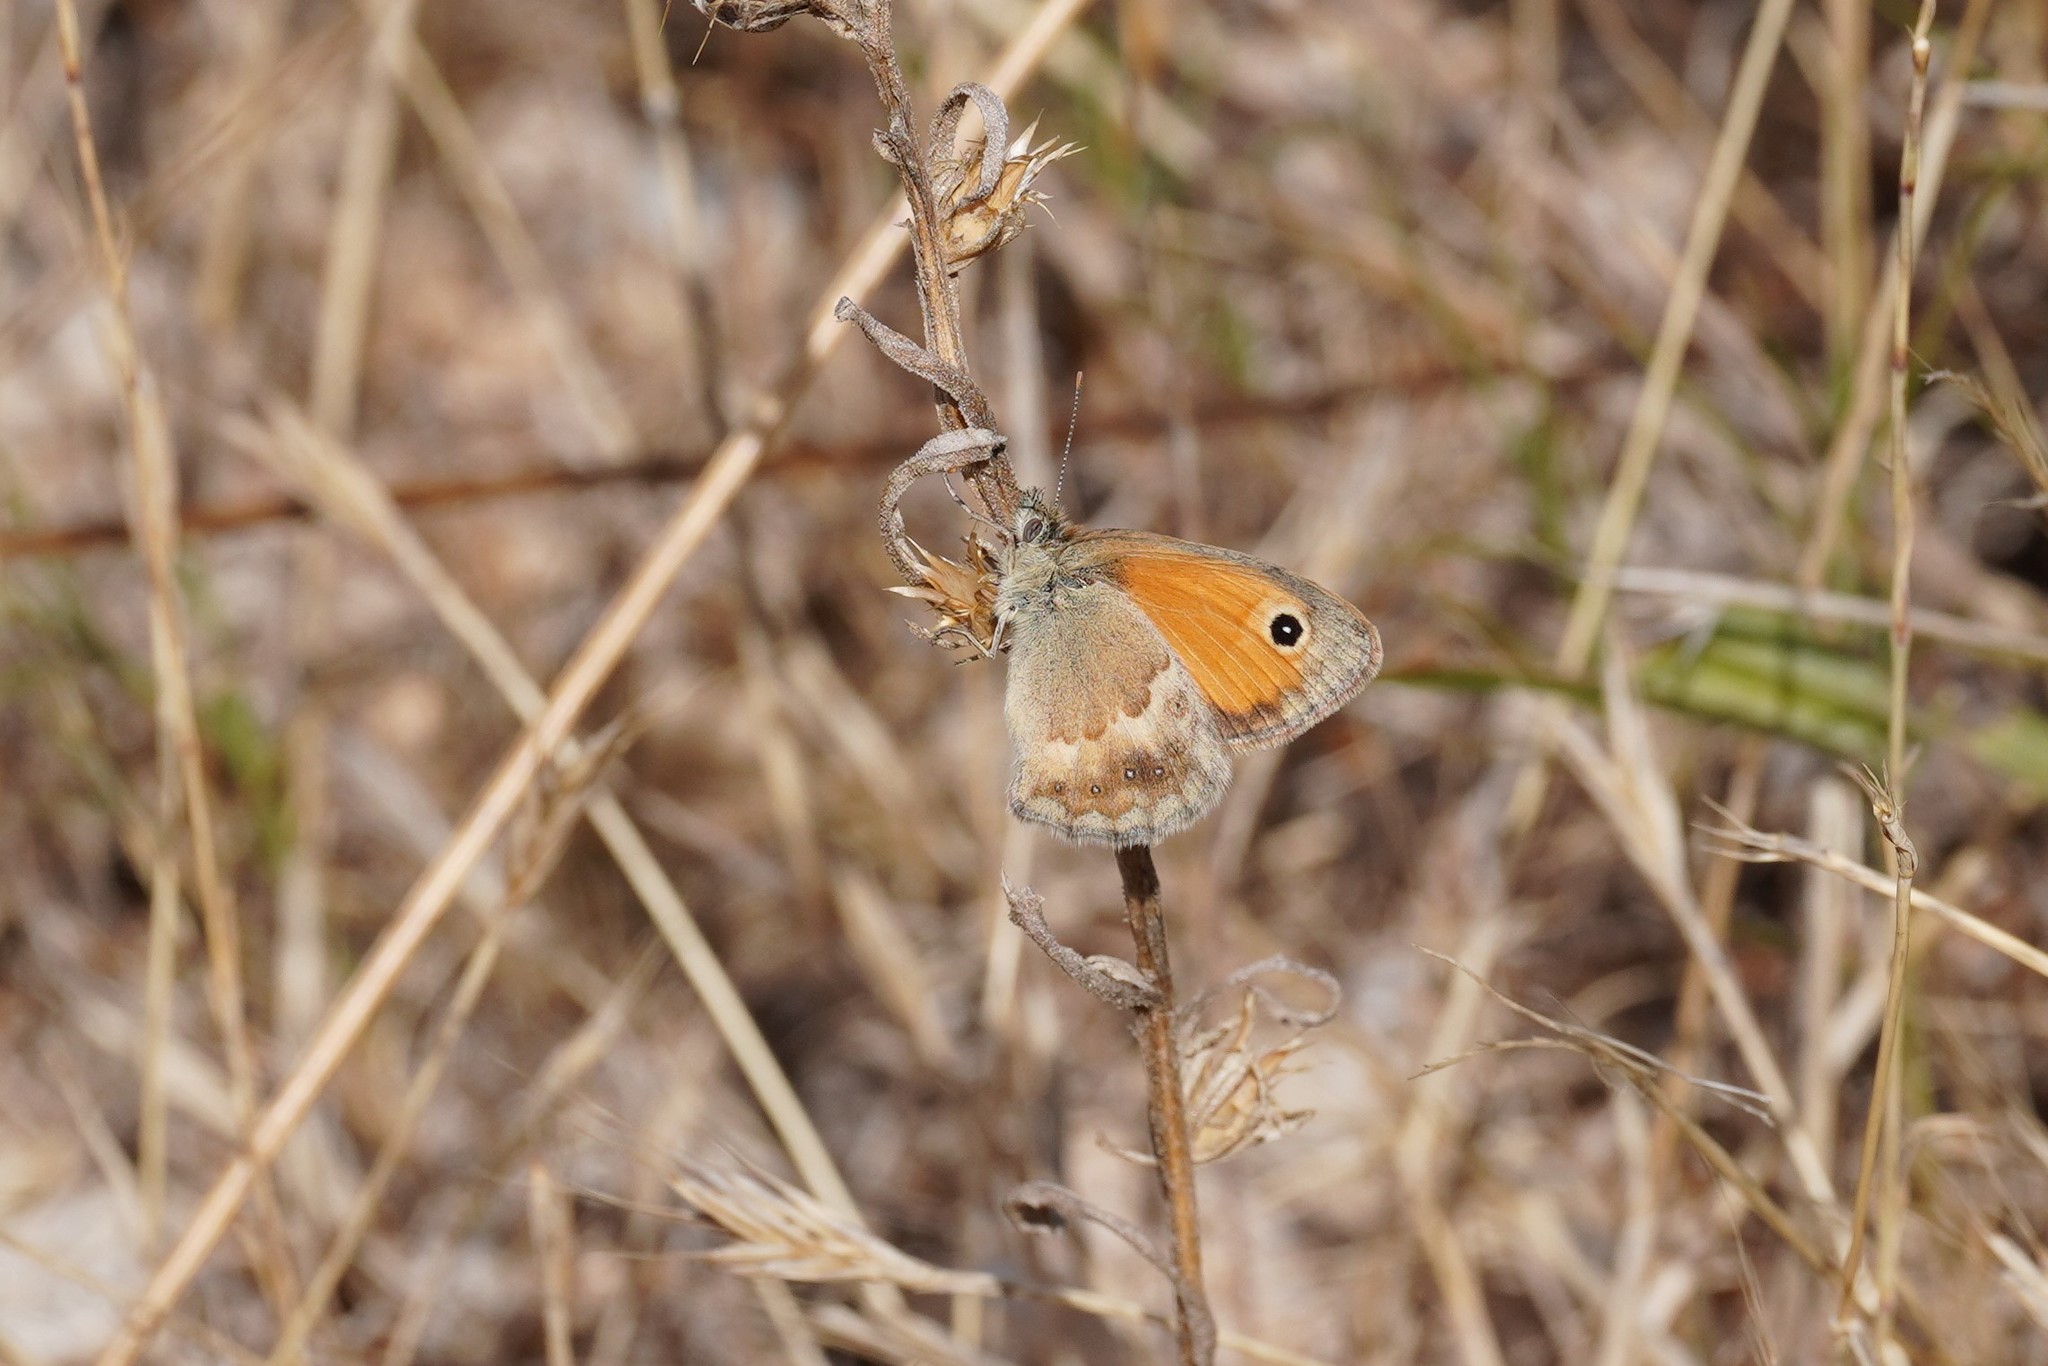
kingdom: Animalia
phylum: Arthropoda
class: Insecta
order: Lepidoptera
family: Nymphalidae
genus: Coenonympha
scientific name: Coenonympha pamphilus
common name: Small heath
